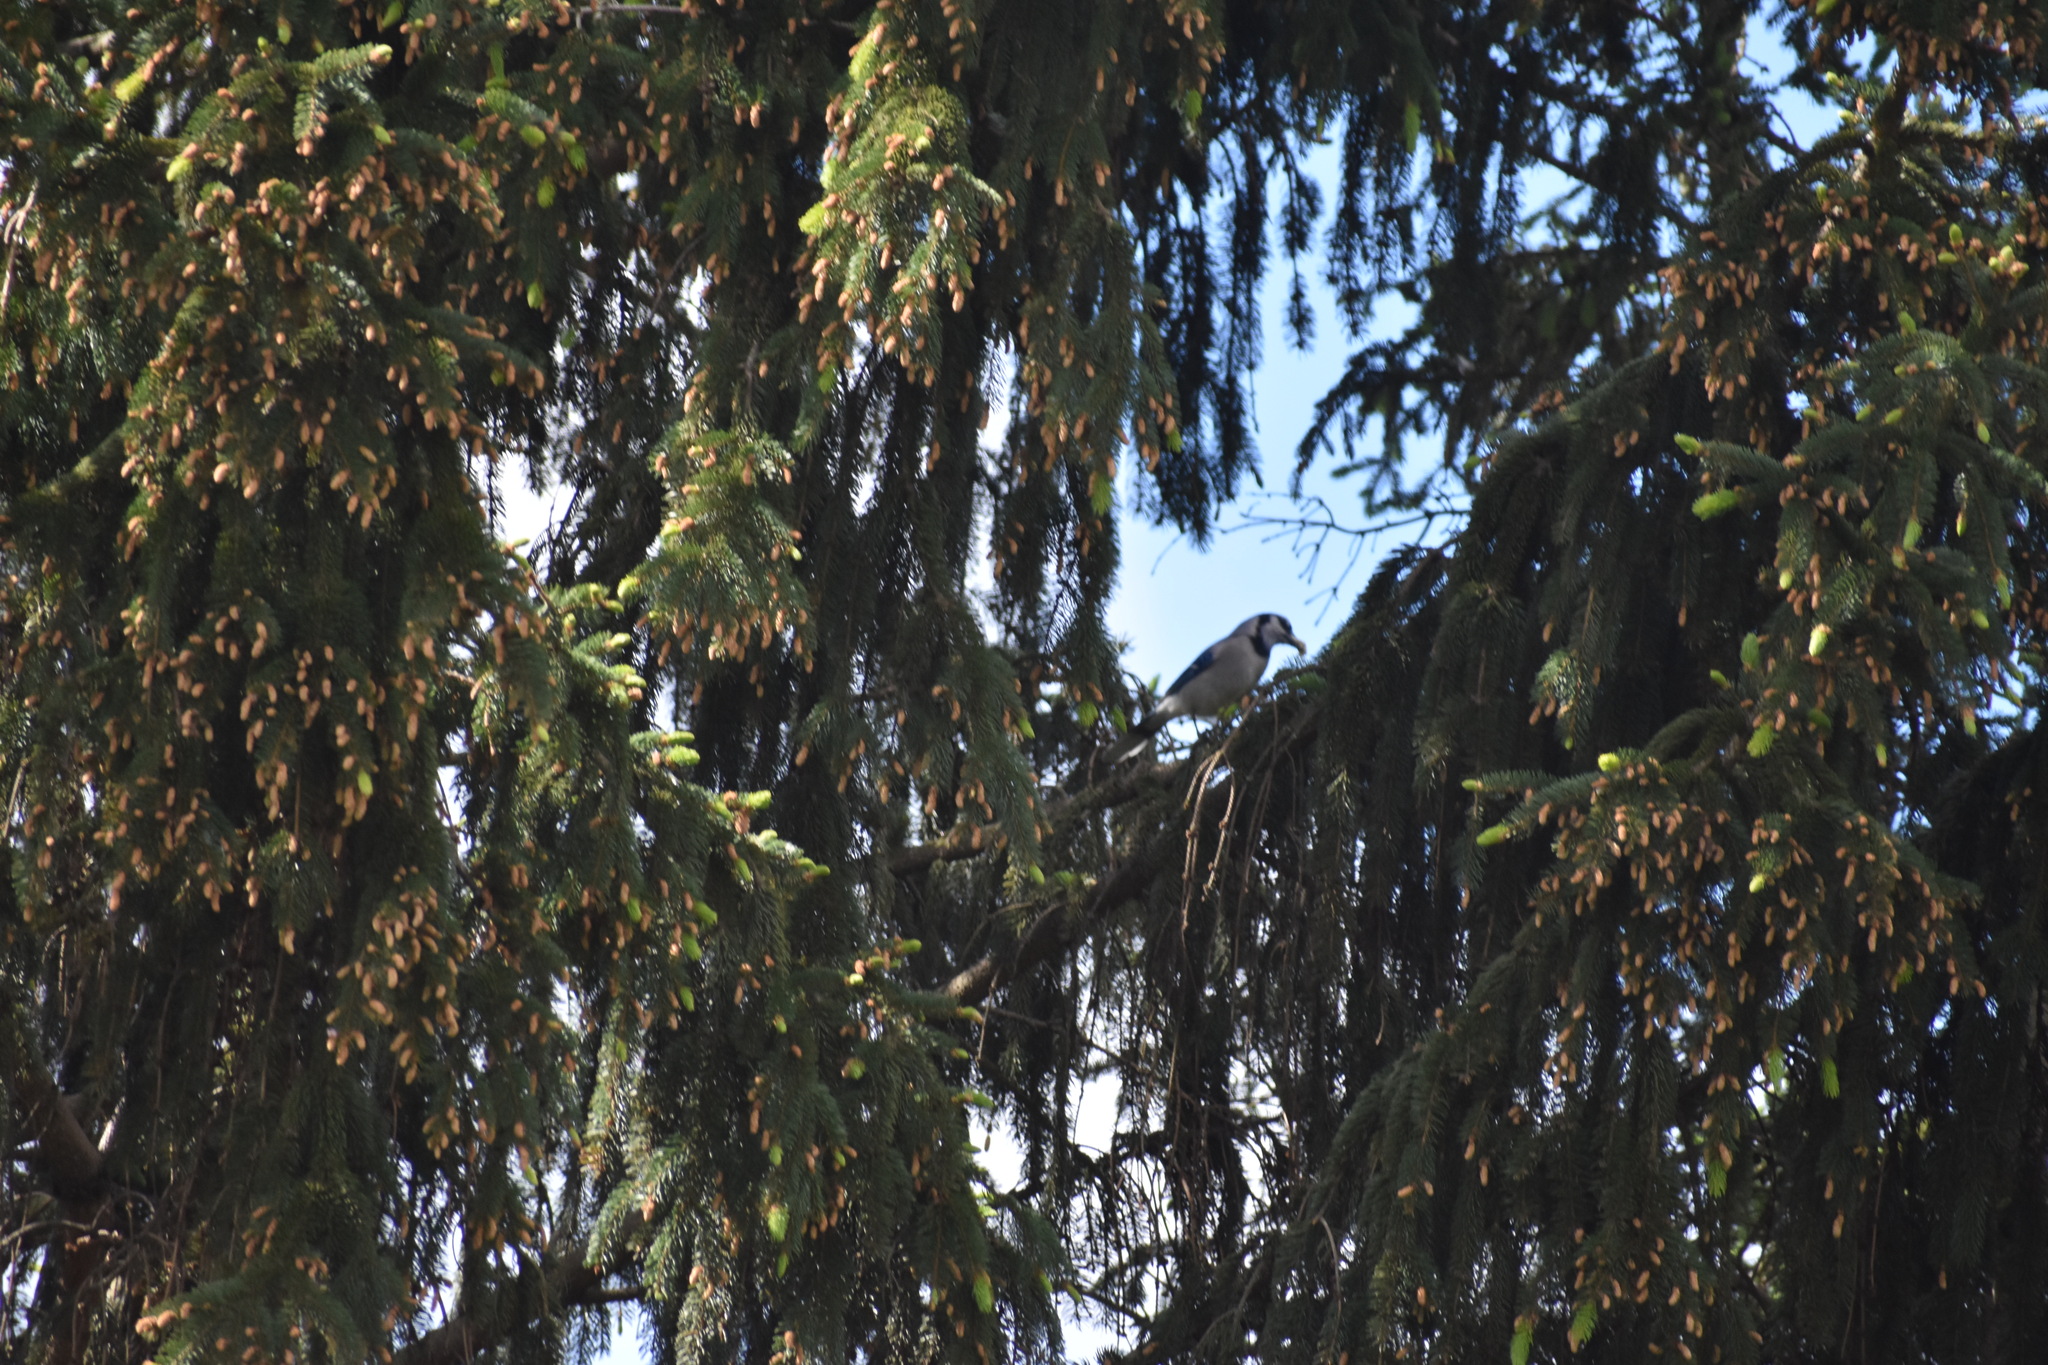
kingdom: Animalia
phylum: Chordata
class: Aves
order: Passeriformes
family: Corvidae
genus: Cyanocitta
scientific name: Cyanocitta cristata
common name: Blue jay
